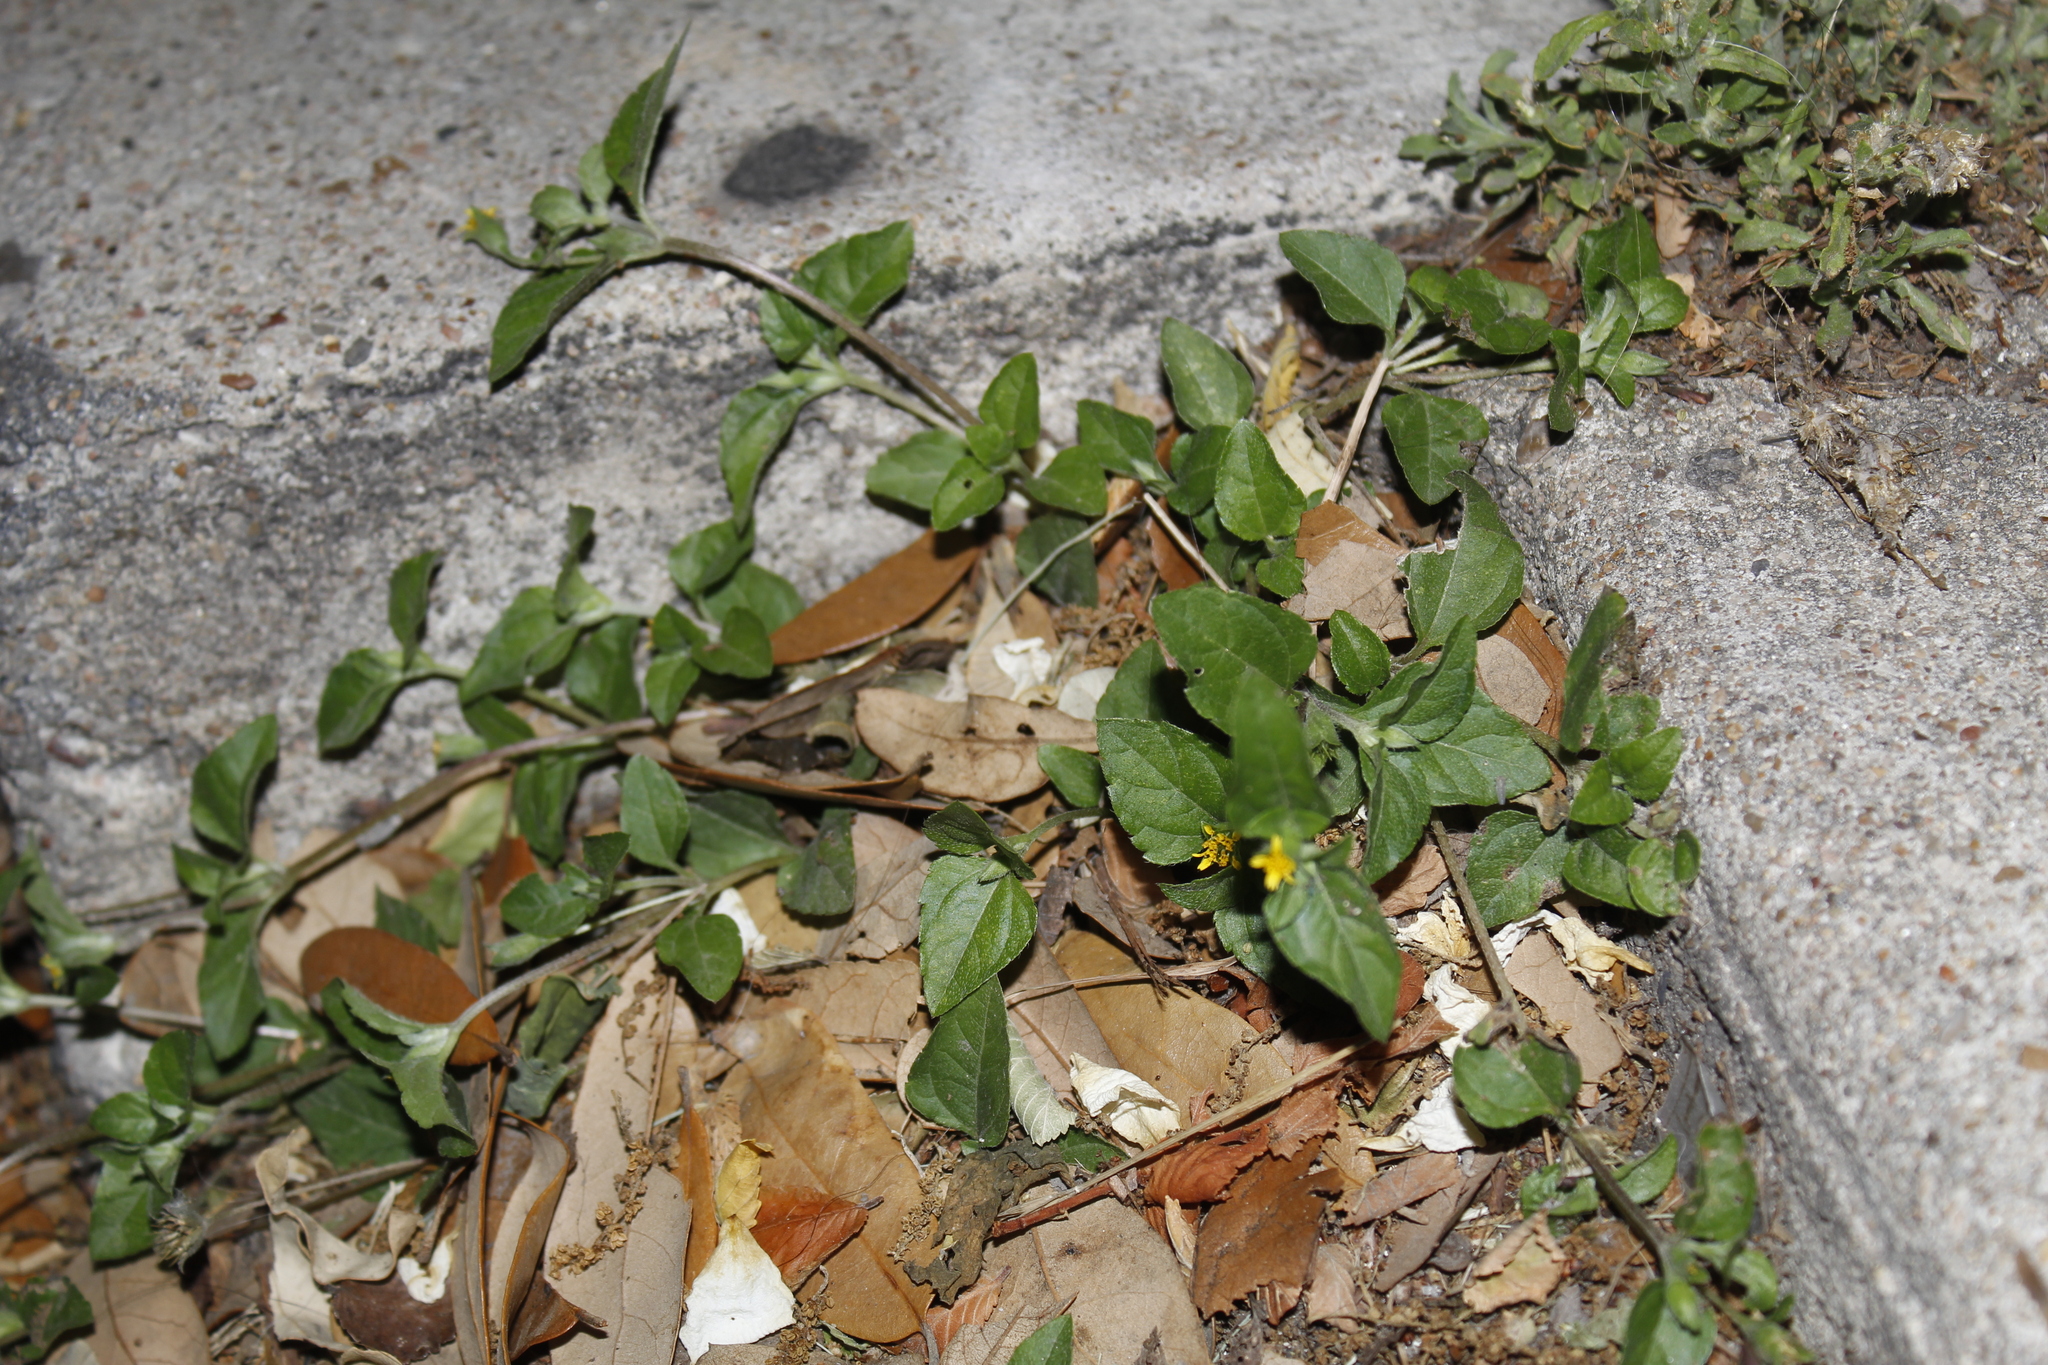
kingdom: Plantae
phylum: Tracheophyta
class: Magnoliopsida
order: Asterales
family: Asteraceae
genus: Calyptocarpus
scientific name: Calyptocarpus vialis
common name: Straggler daisy
